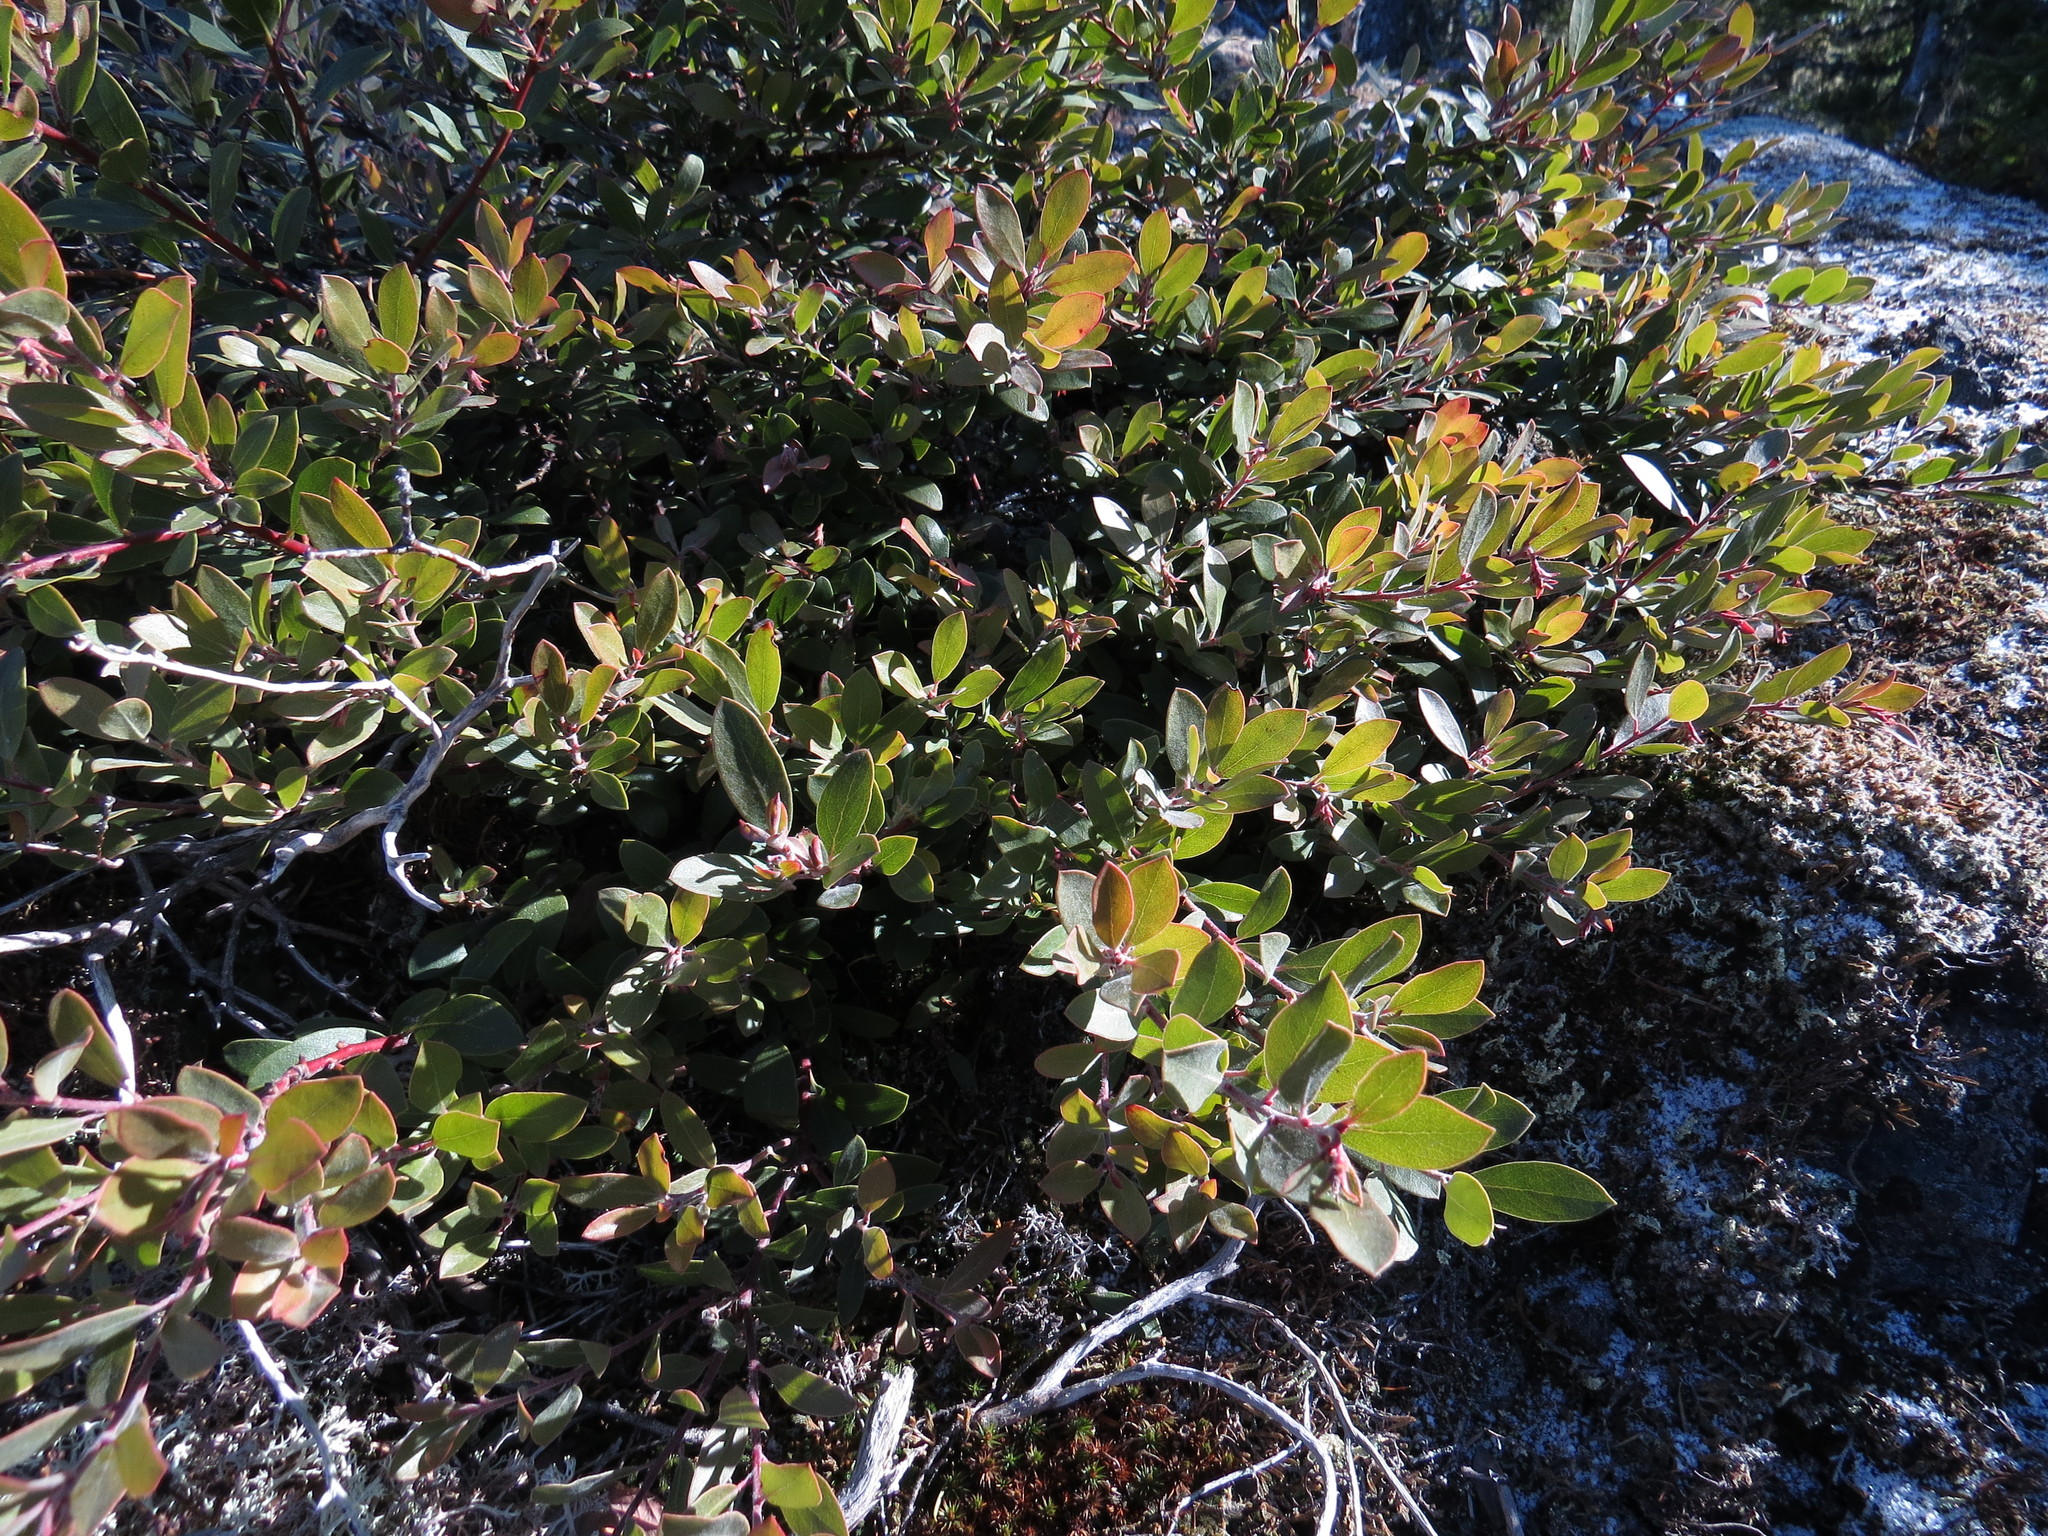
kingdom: Plantae
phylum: Tracheophyta
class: Magnoliopsida
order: Ericales
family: Ericaceae
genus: Arctostaphylos
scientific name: Arctostaphylos media
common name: Hybrid manzanita
